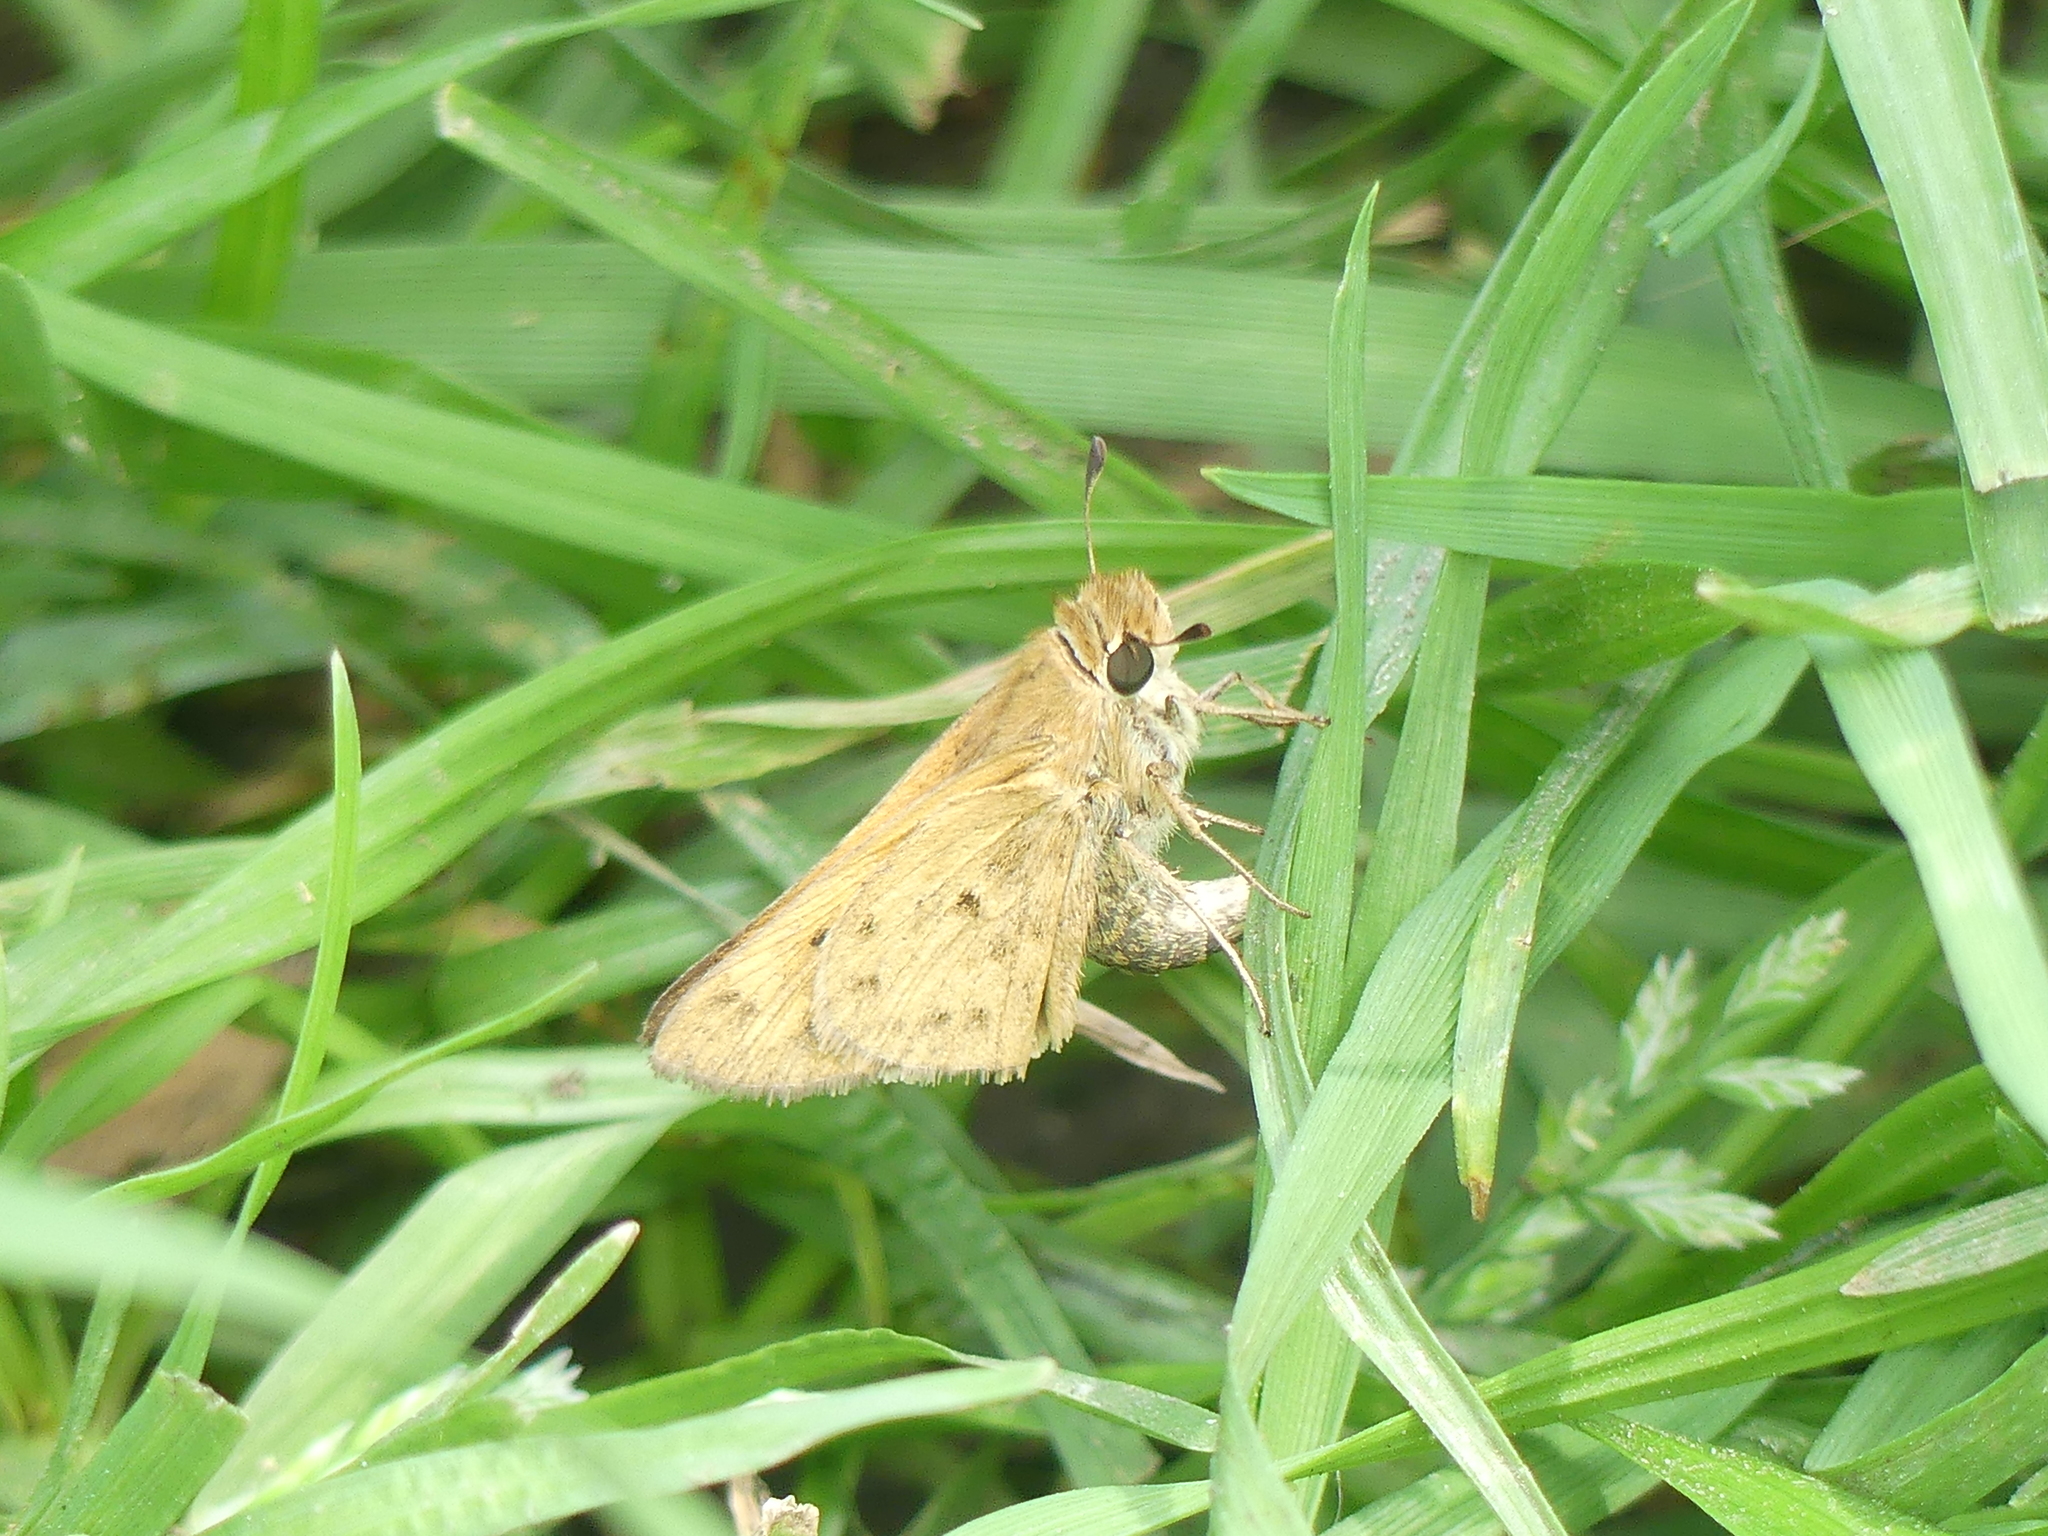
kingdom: Animalia
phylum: Arthropoda
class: Insecta
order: Lepidoptera
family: Hesperiidae
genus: Hylephila
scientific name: Hylephila phyleus
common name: Fiery skipper
